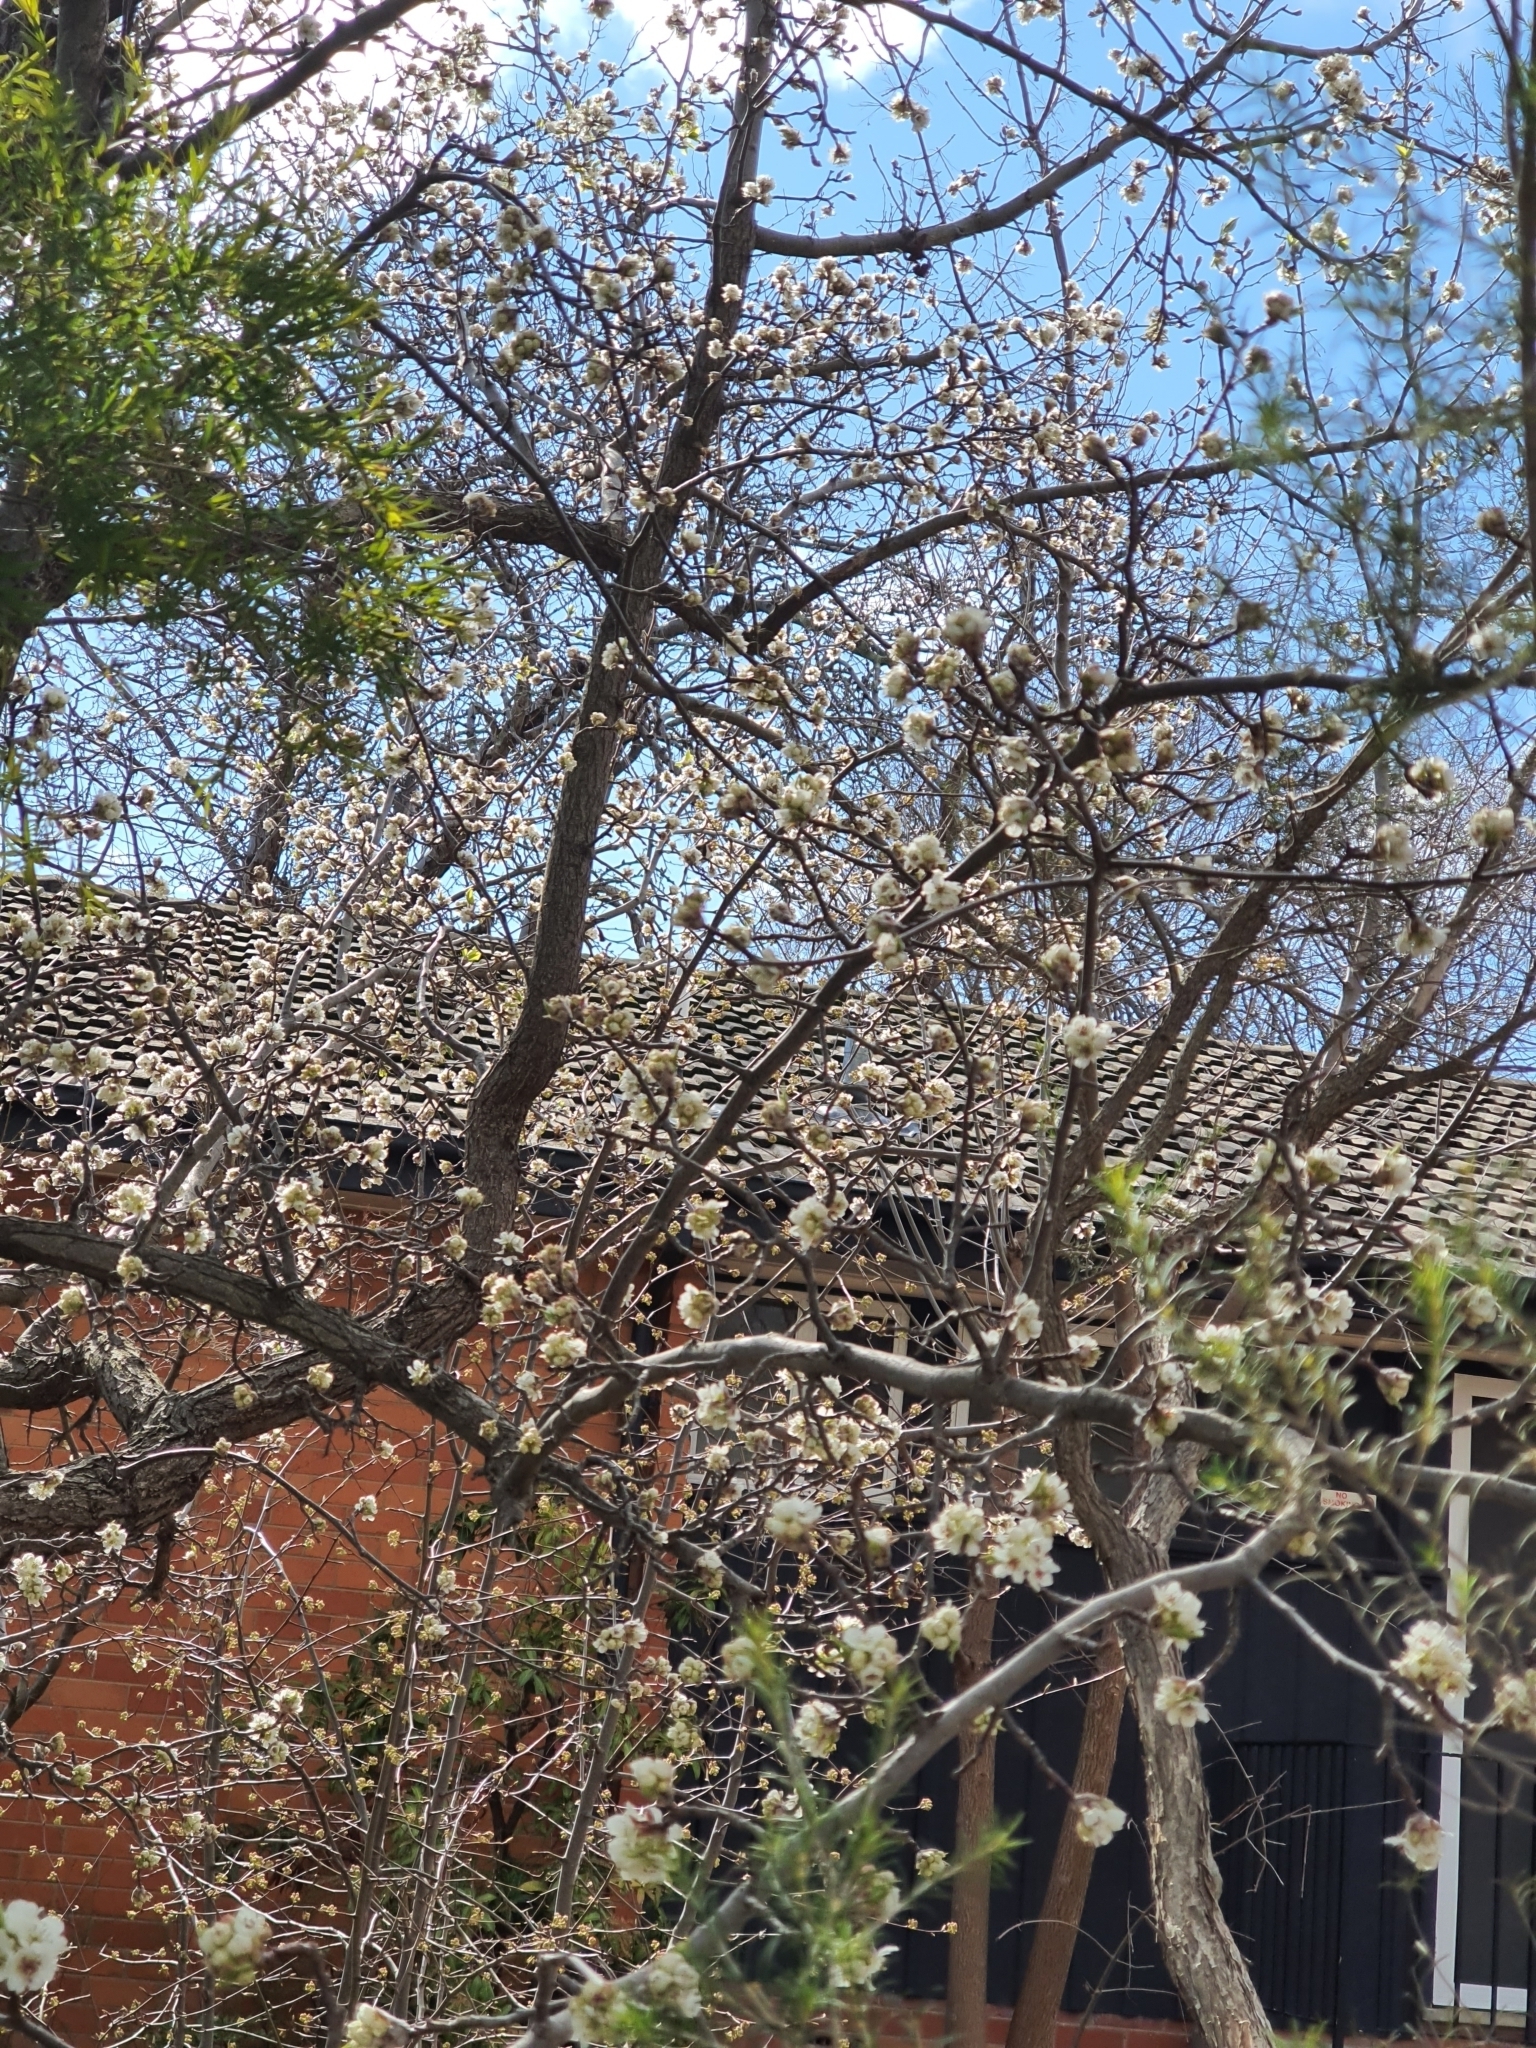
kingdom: Animalia
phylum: Chordata
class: Aves
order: Passeriformes
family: Meliphagidae
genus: Acanthorhynchus
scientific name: Acanthorhynchus tenuirostris
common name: Eastern spinebill
